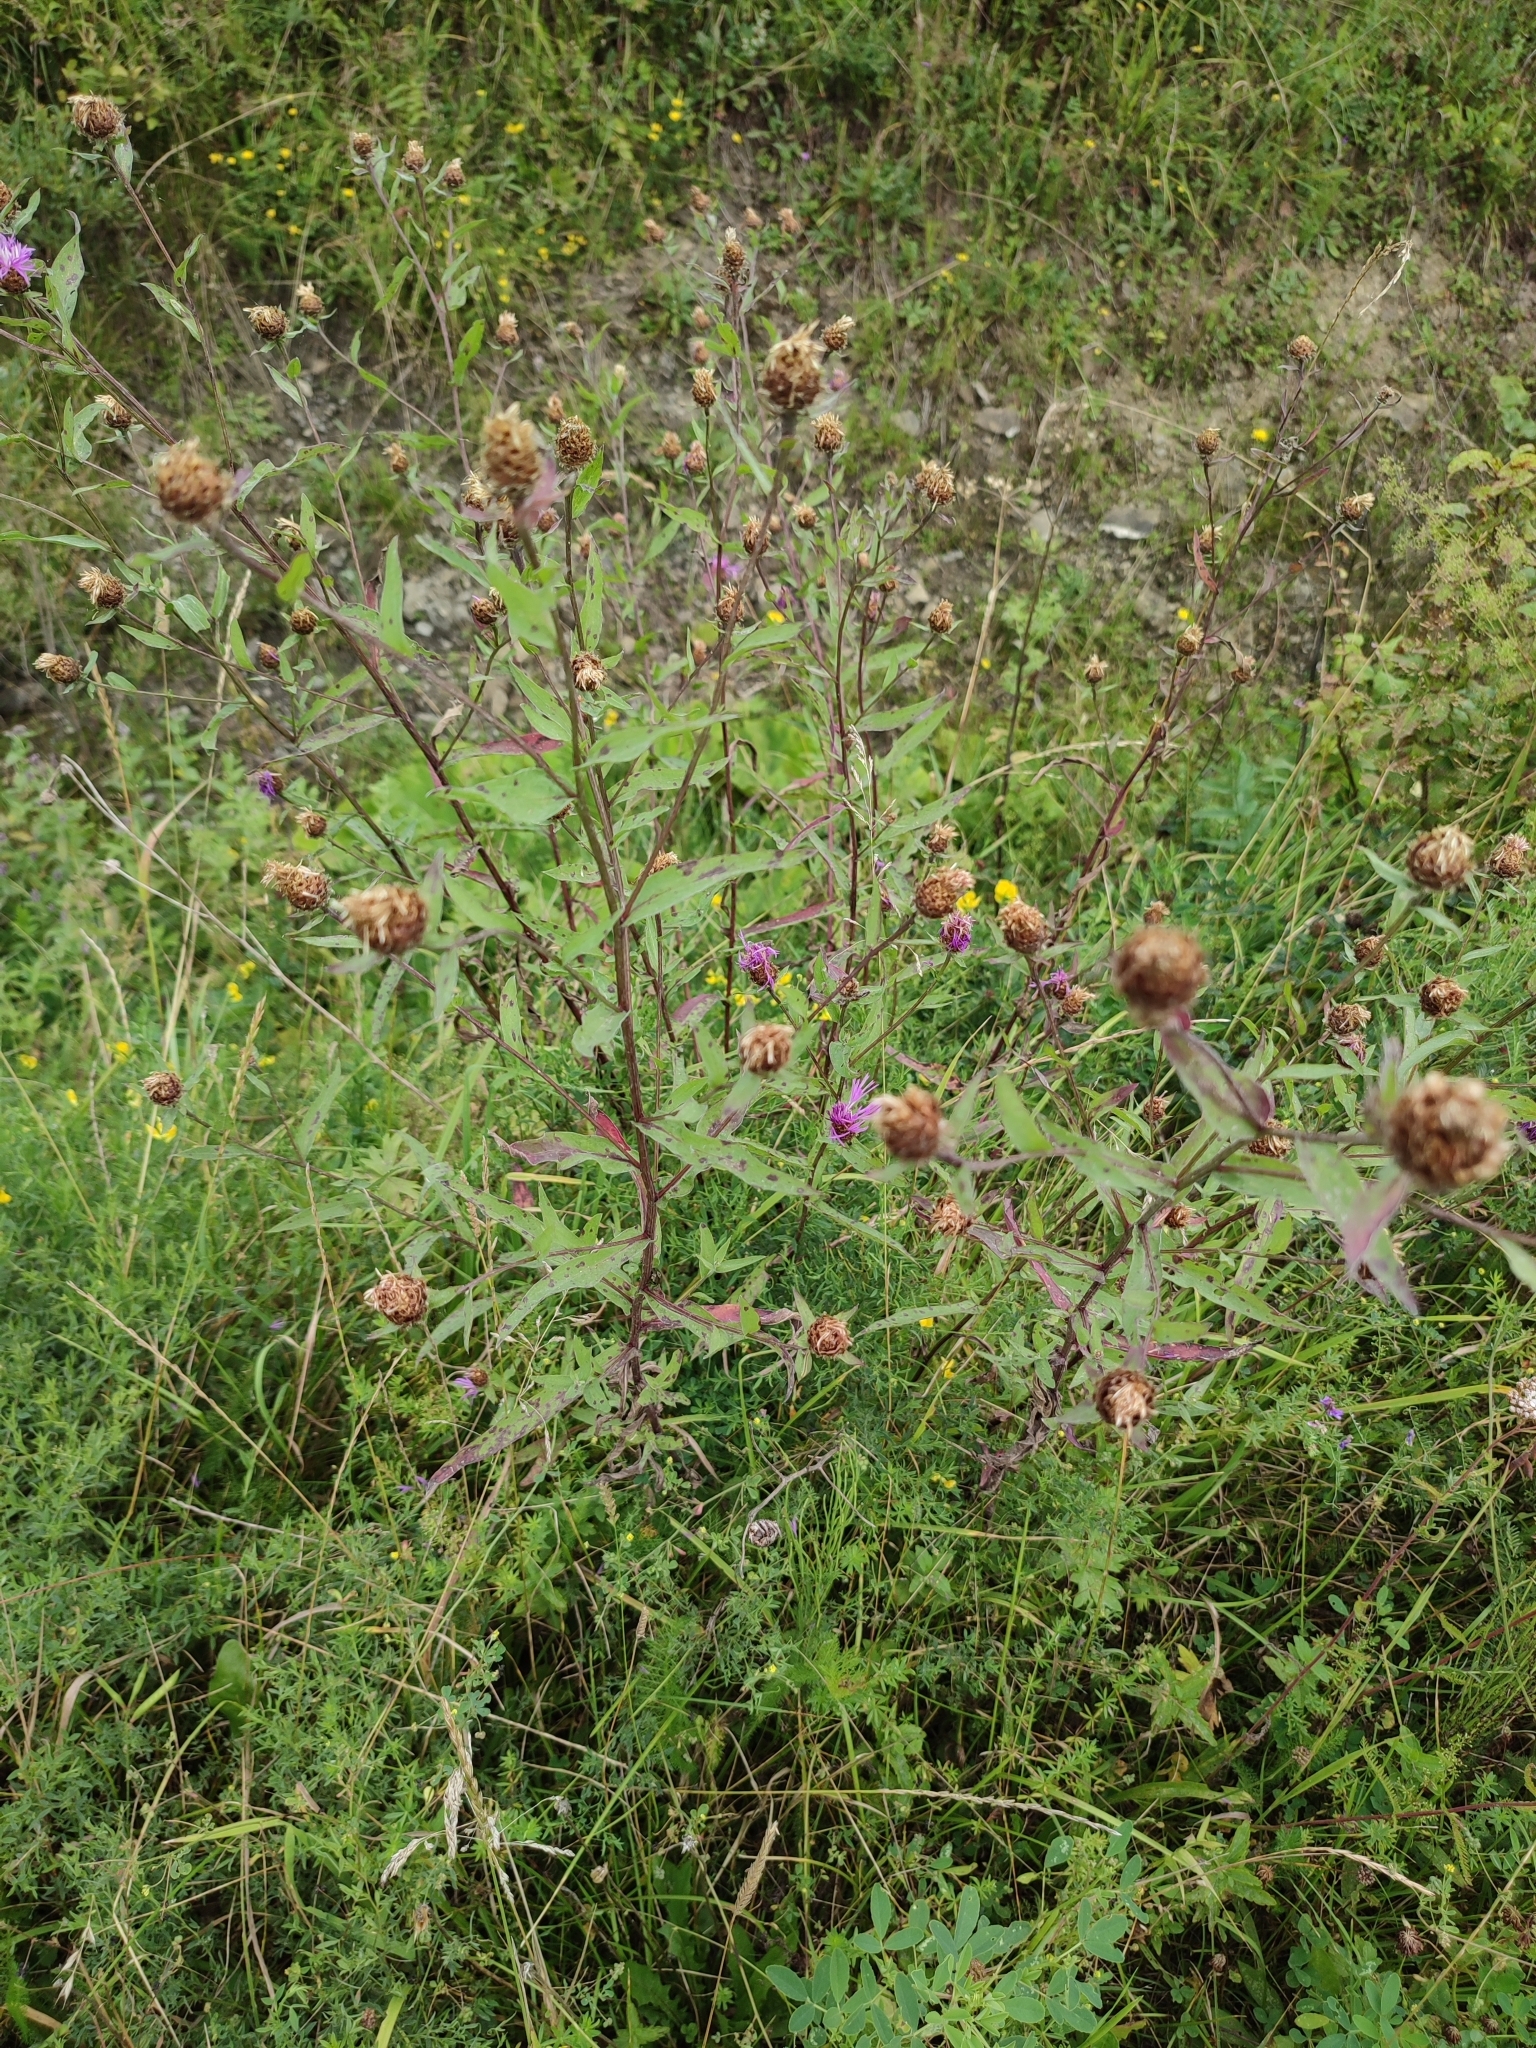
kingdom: Plantae
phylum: Tracheophyta
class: Magnoliopsida
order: Asterales
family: Asteraceae
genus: Centaurea
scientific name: Centaurea jacea
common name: Brown knapweed
